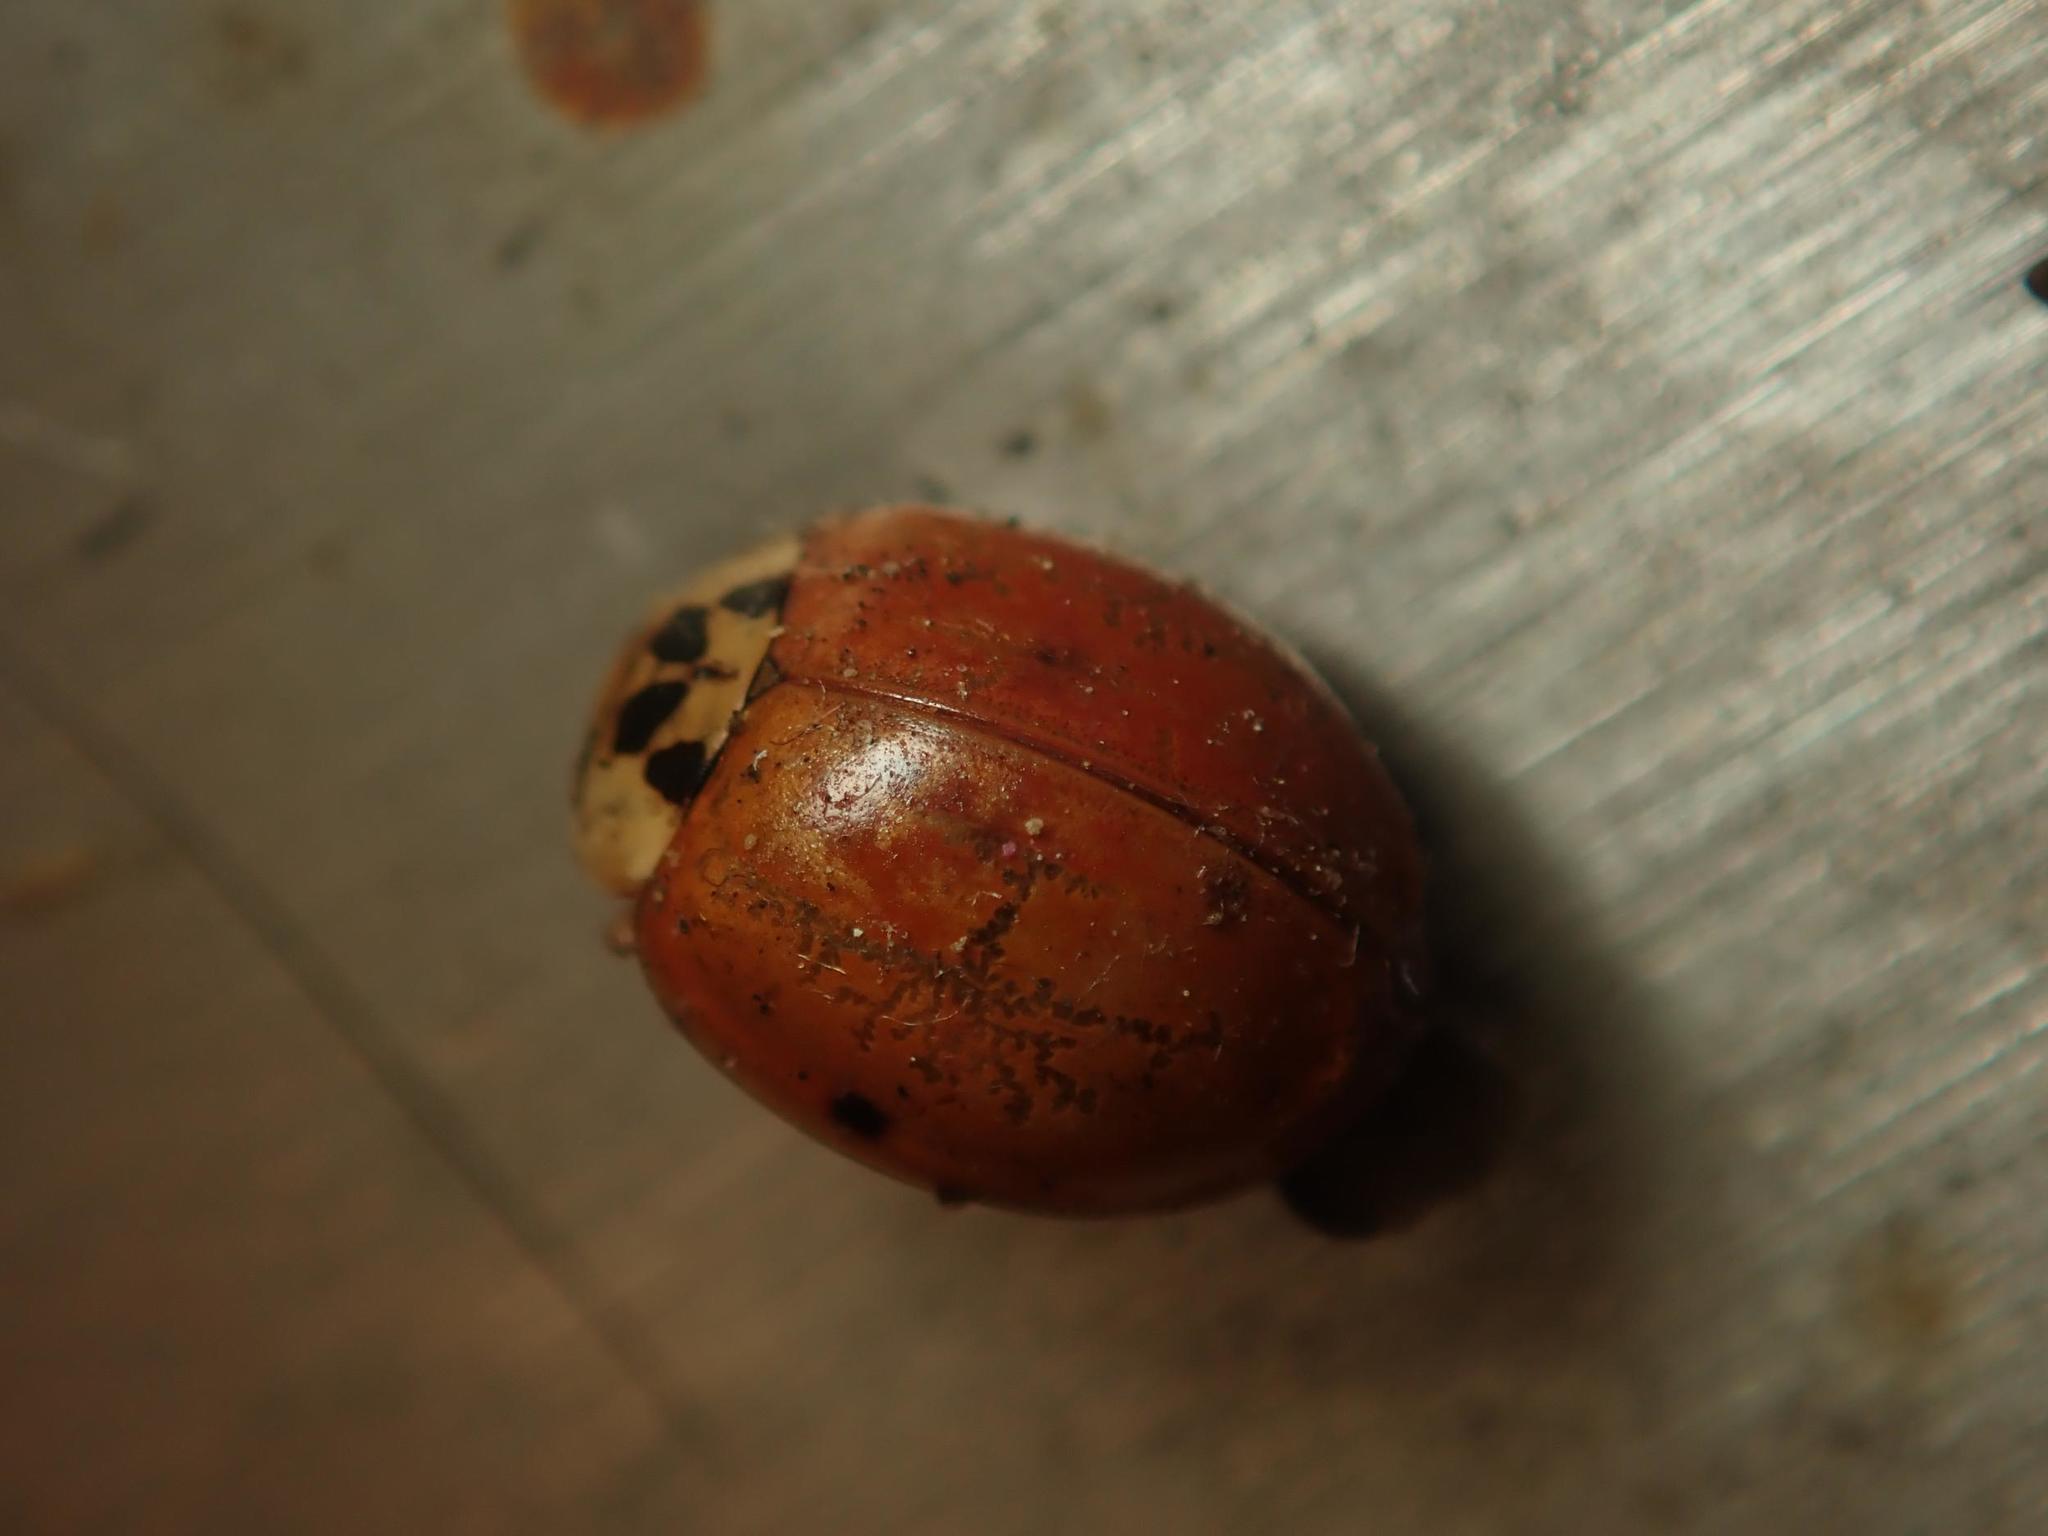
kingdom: Animalia
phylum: Arthropoda
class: Insecta
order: Coleoptera
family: Coccinellidae
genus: Harmonia
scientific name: Harmonia axyridis
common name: Harlequin ladybird
